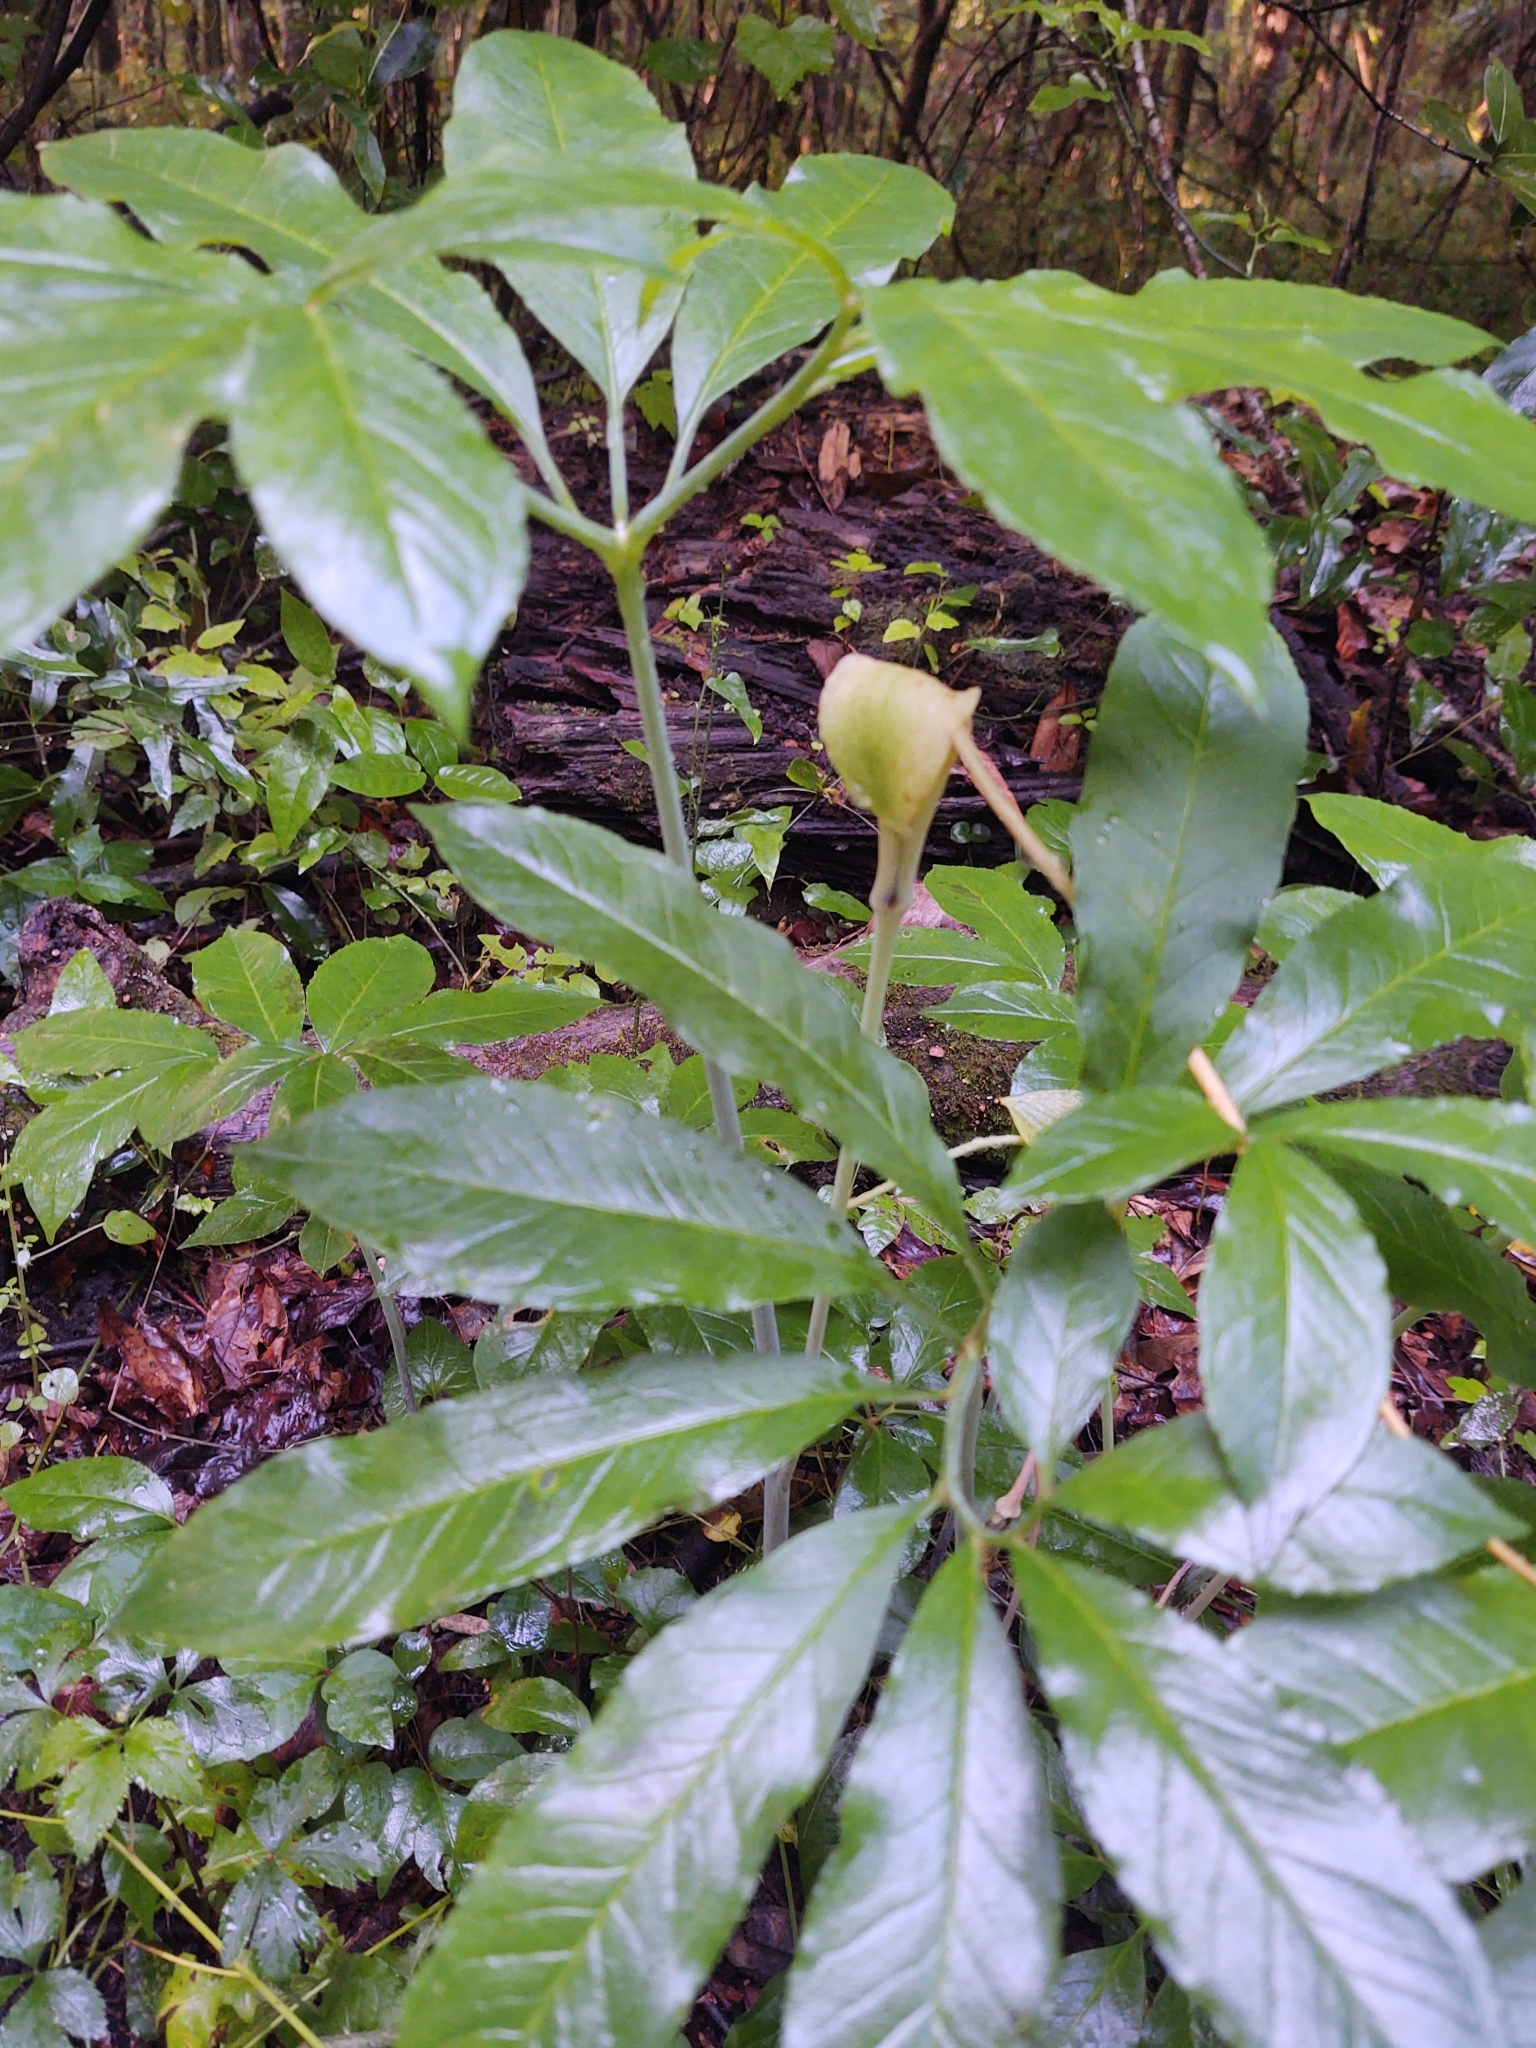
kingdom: Plantae
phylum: Tracheophyta
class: Liliopsida
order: Alismatales
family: Araceae
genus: Arisaema
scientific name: Arisaema dracontium
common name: Dragon-arum
